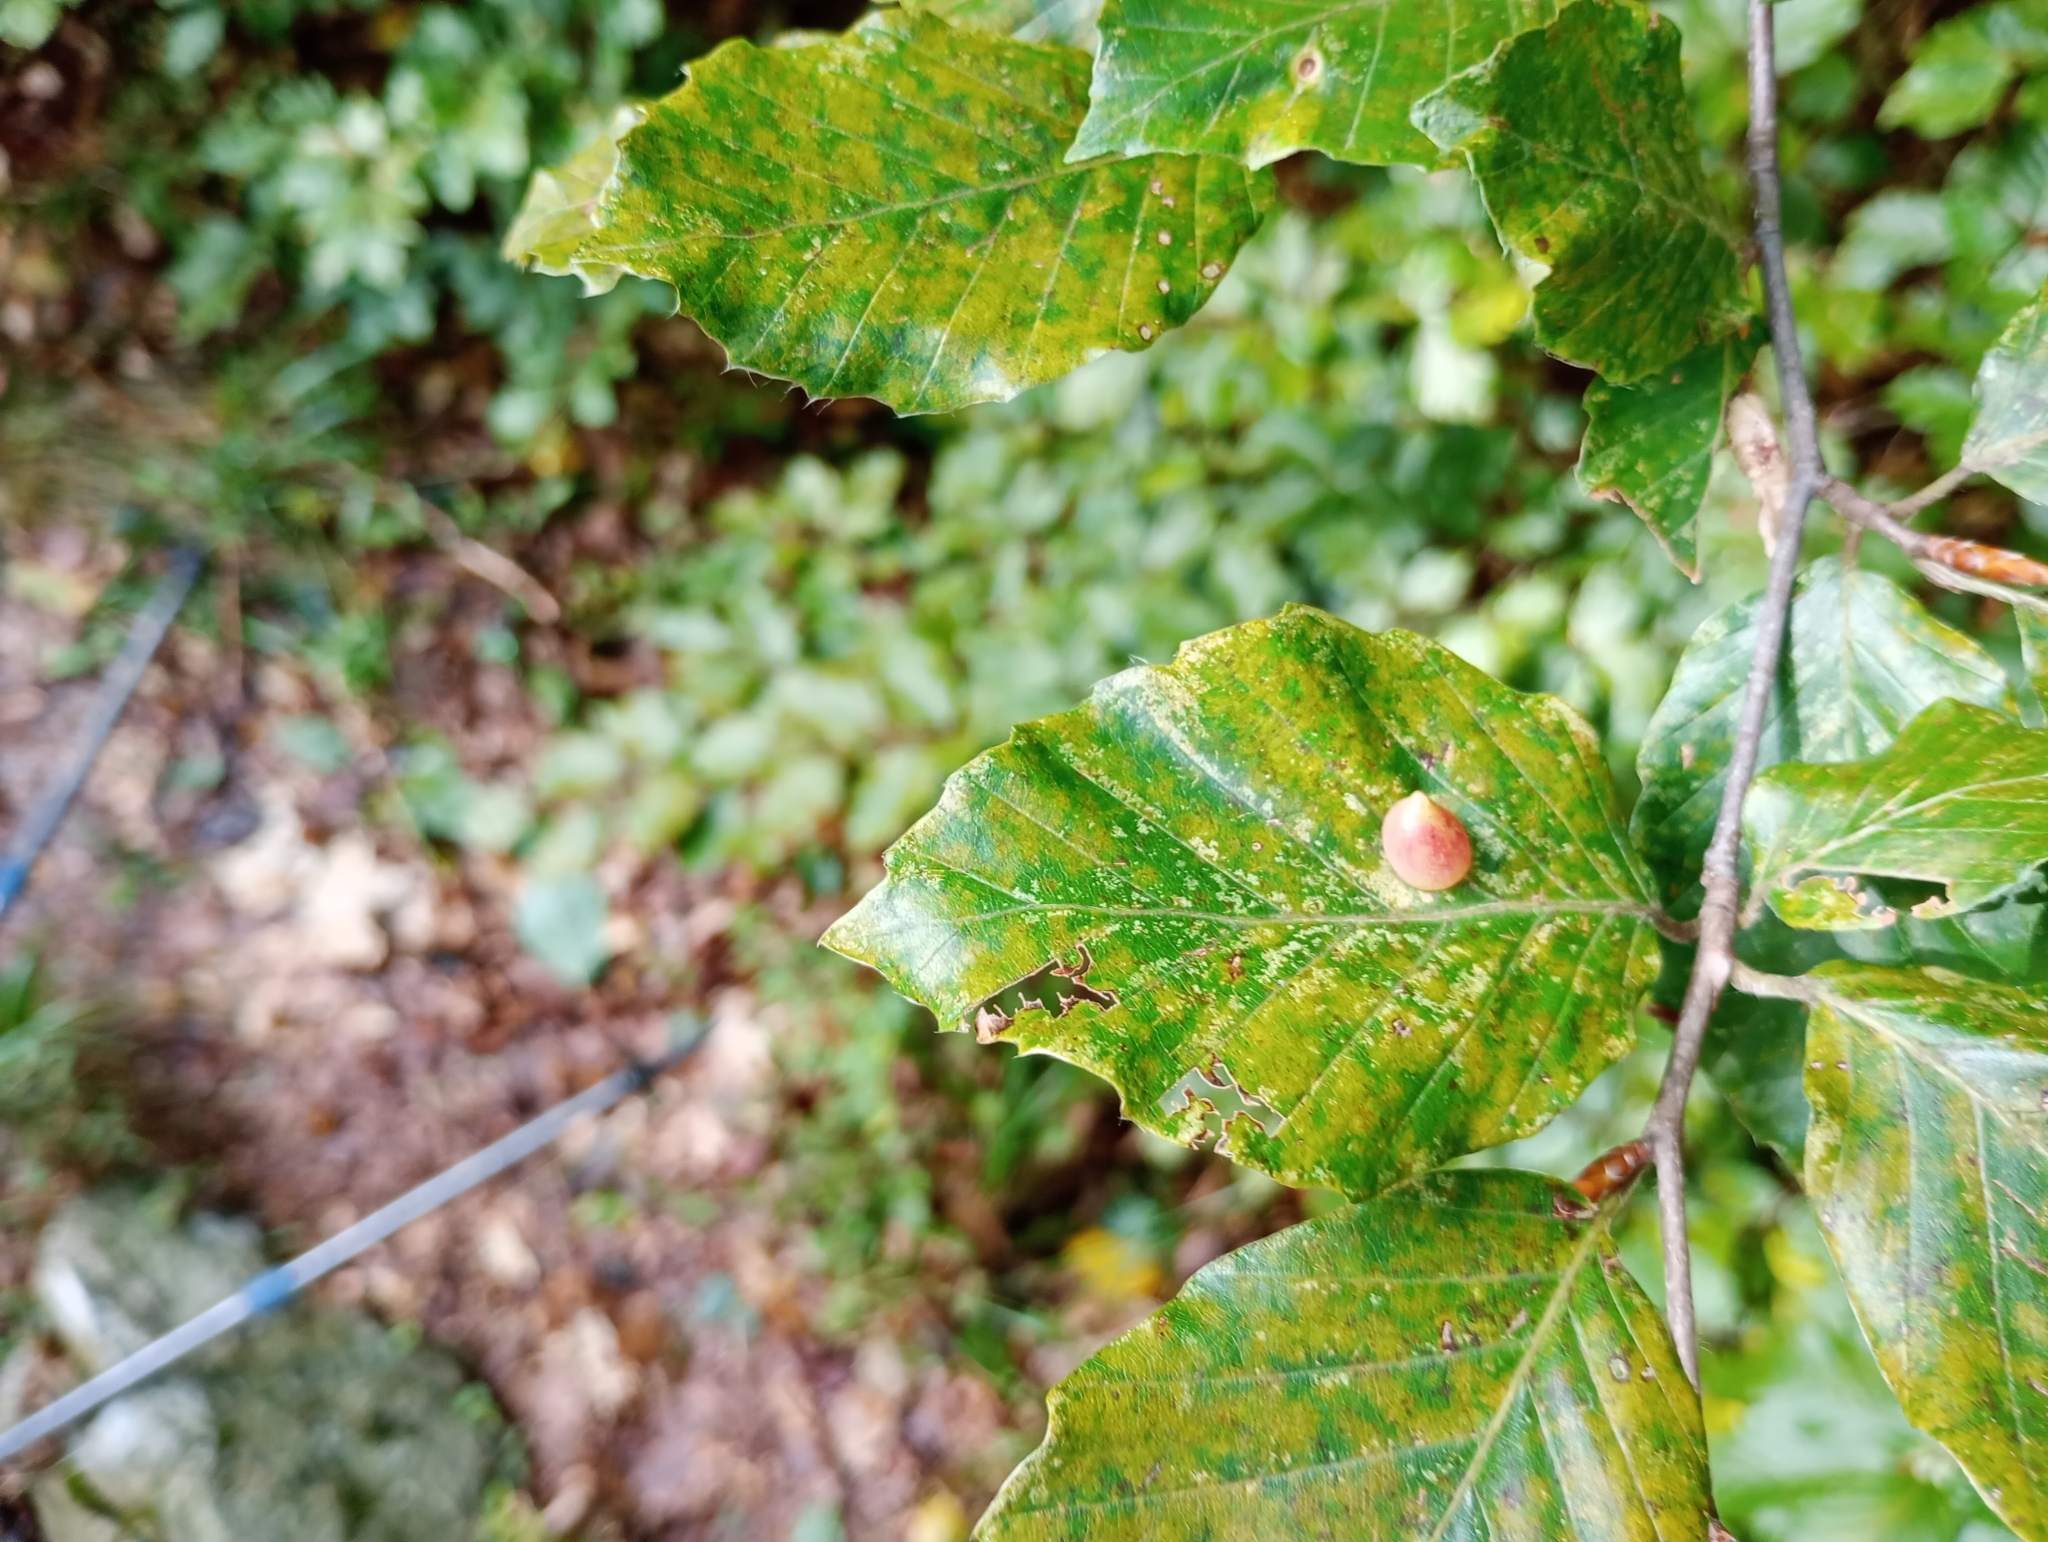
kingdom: Animalia
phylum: Arthropoda
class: Insecta
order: Diptera
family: Cecidomyiidae
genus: Mikiola
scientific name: Mikiola fagi
